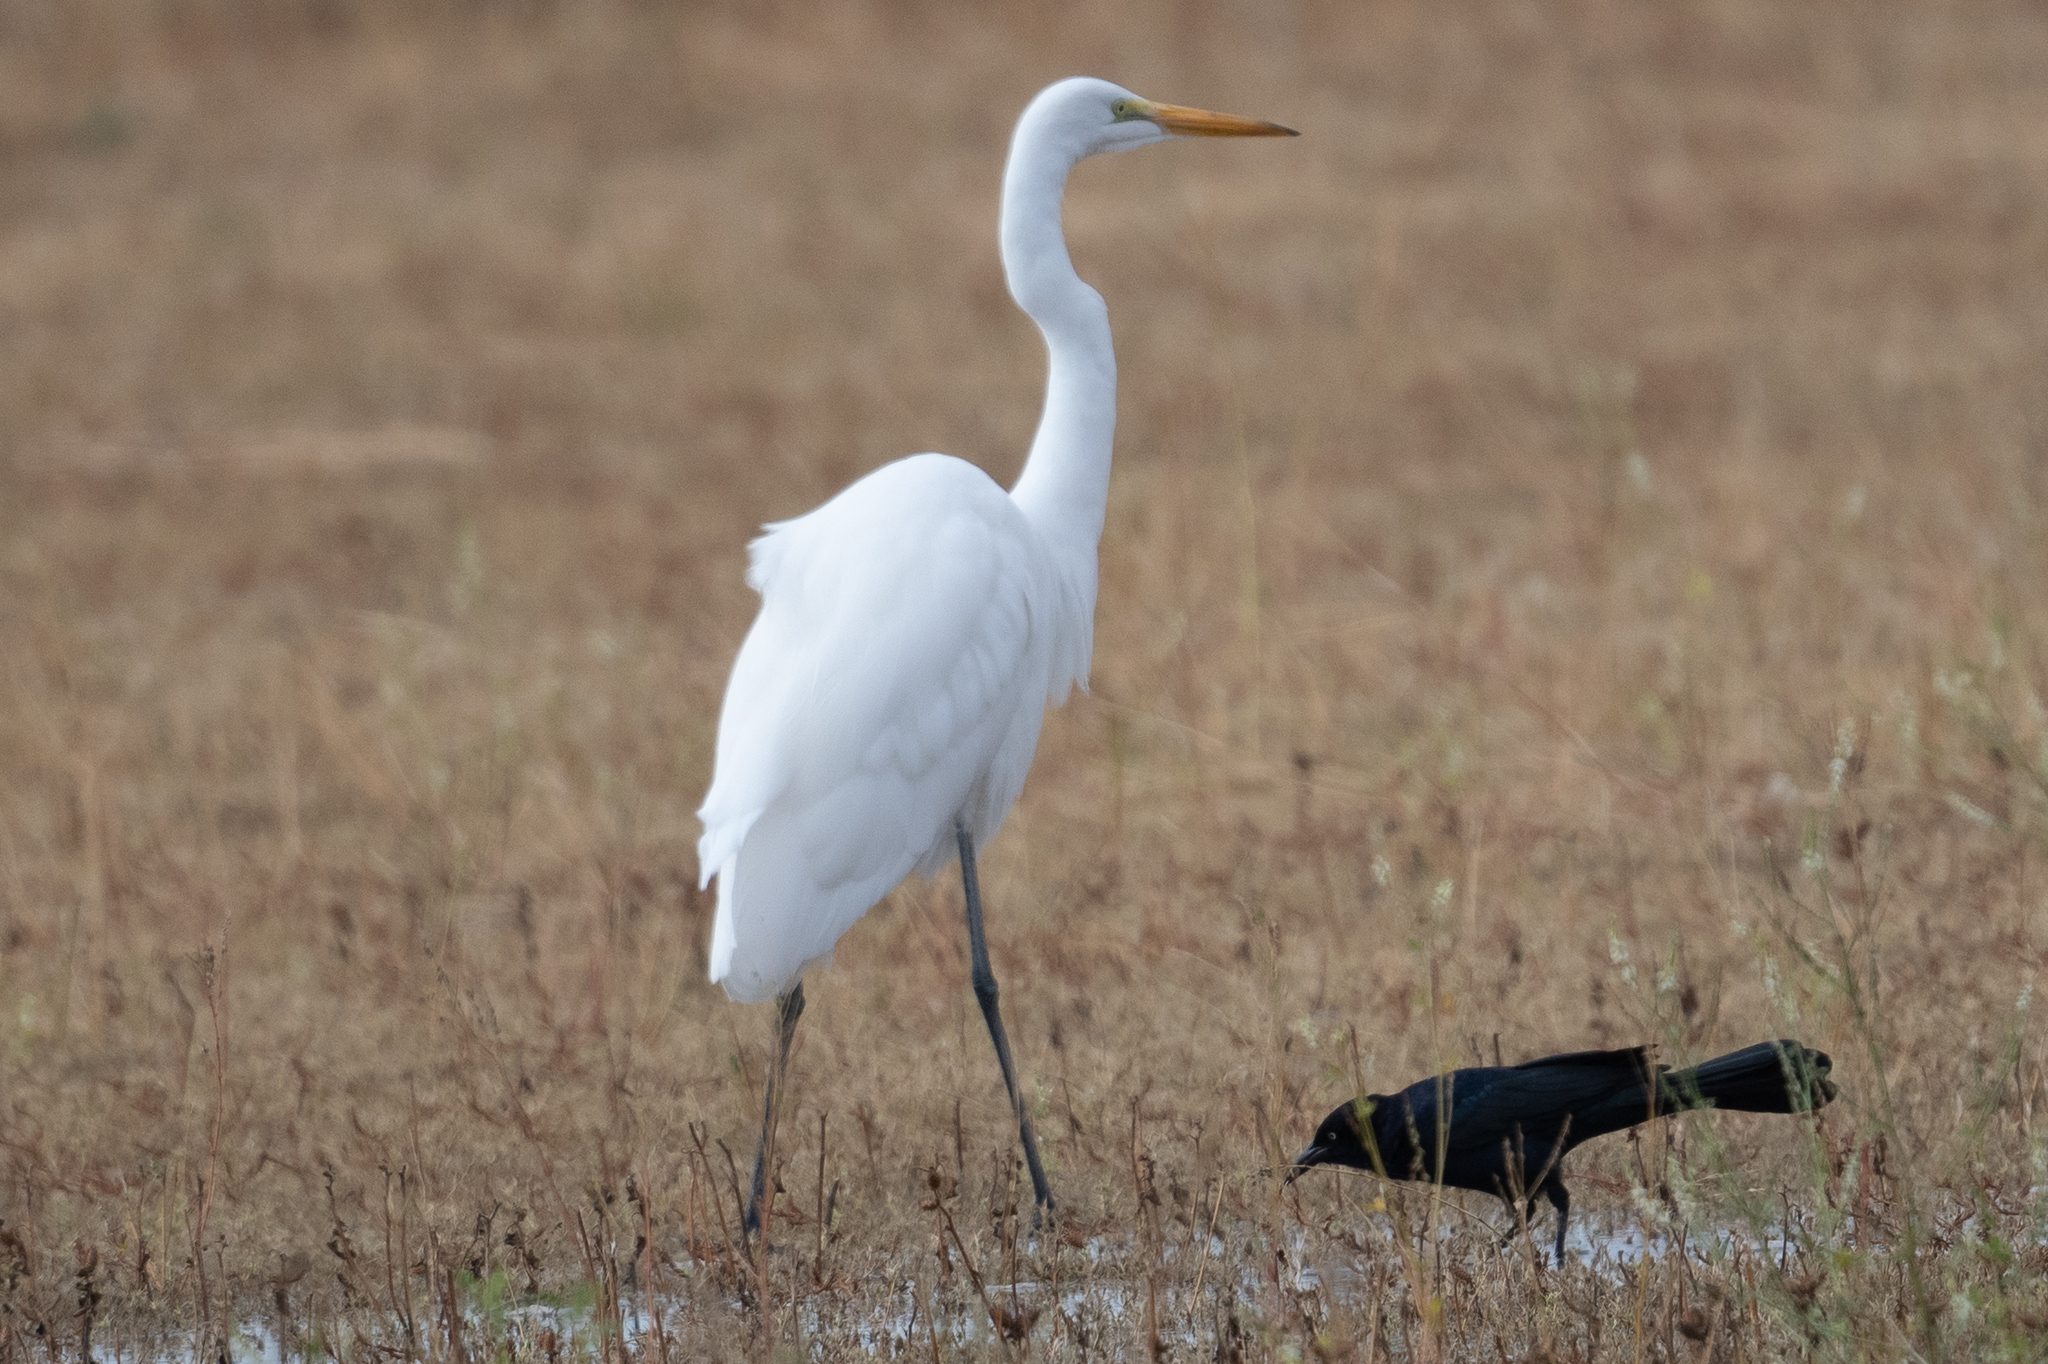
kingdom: Animalia
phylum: Chordata
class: Aves
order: Pelecaniformes
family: Ardeidae
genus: Ardea
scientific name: Ardea alba
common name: Great egret
